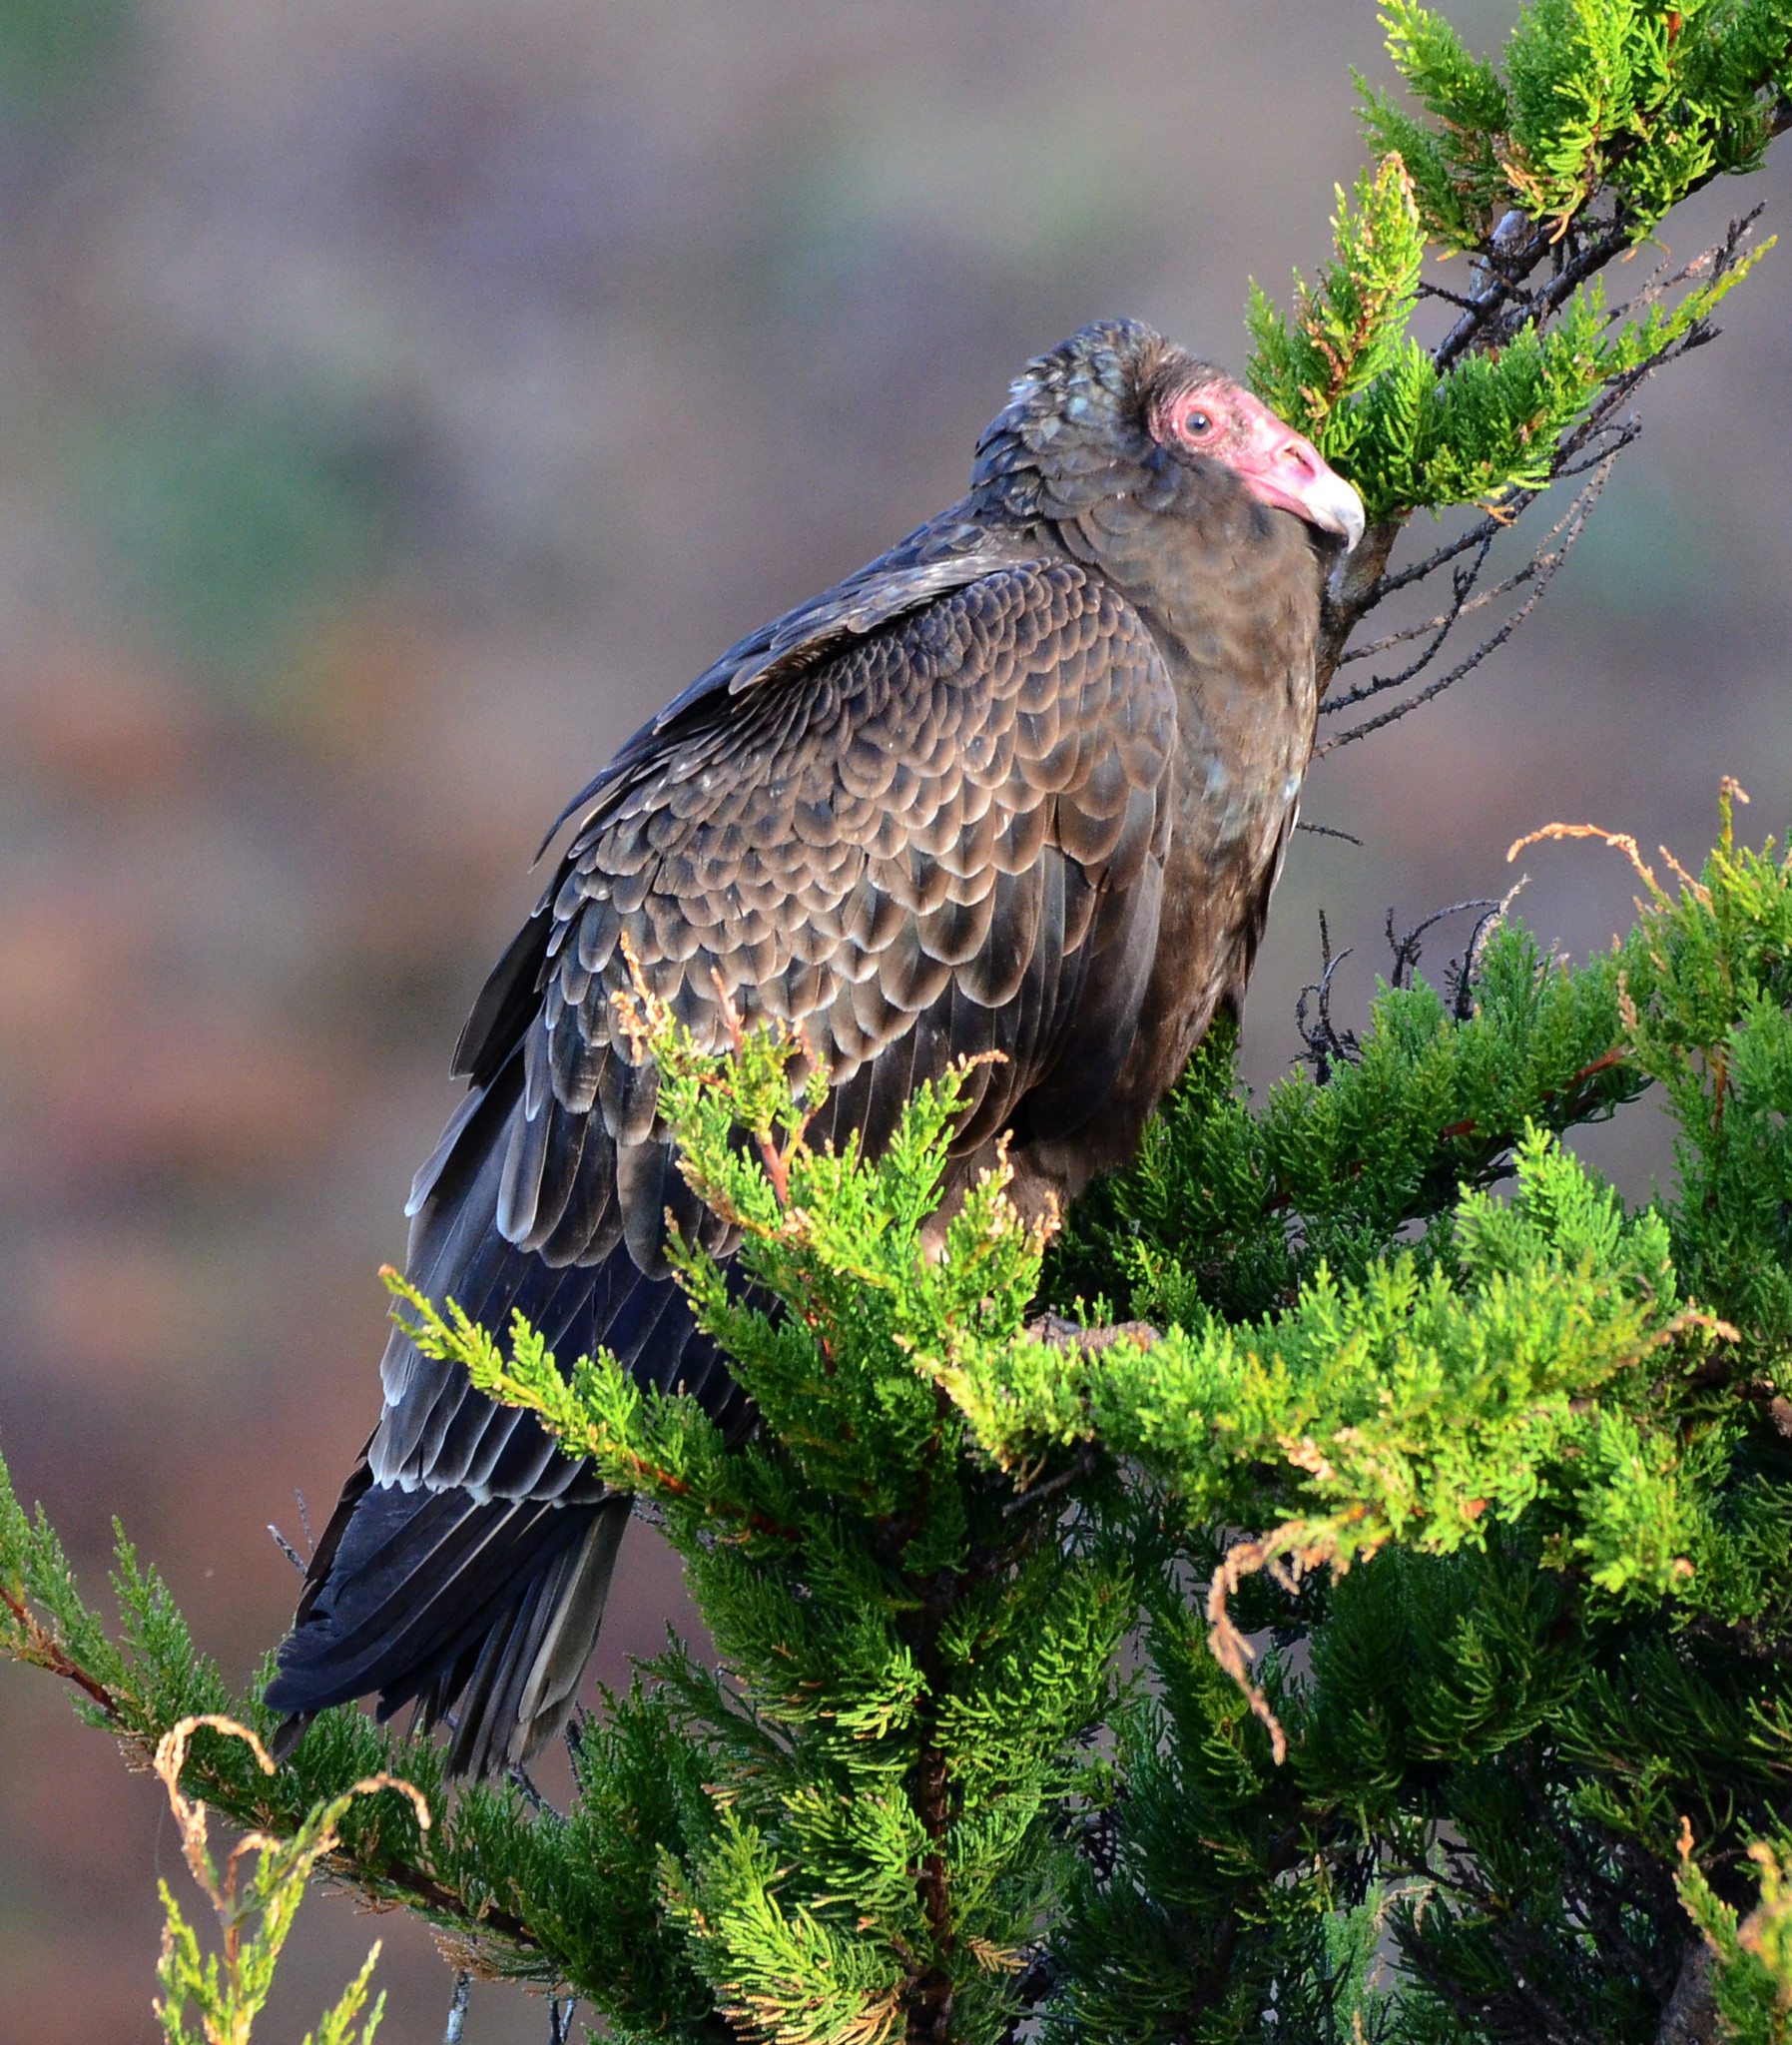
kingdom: Animalia
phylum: Chordata
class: Aves
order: Accipitriformes
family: Cathartidae
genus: Cathartes
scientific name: Cathartes aura
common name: Turkey vulture
